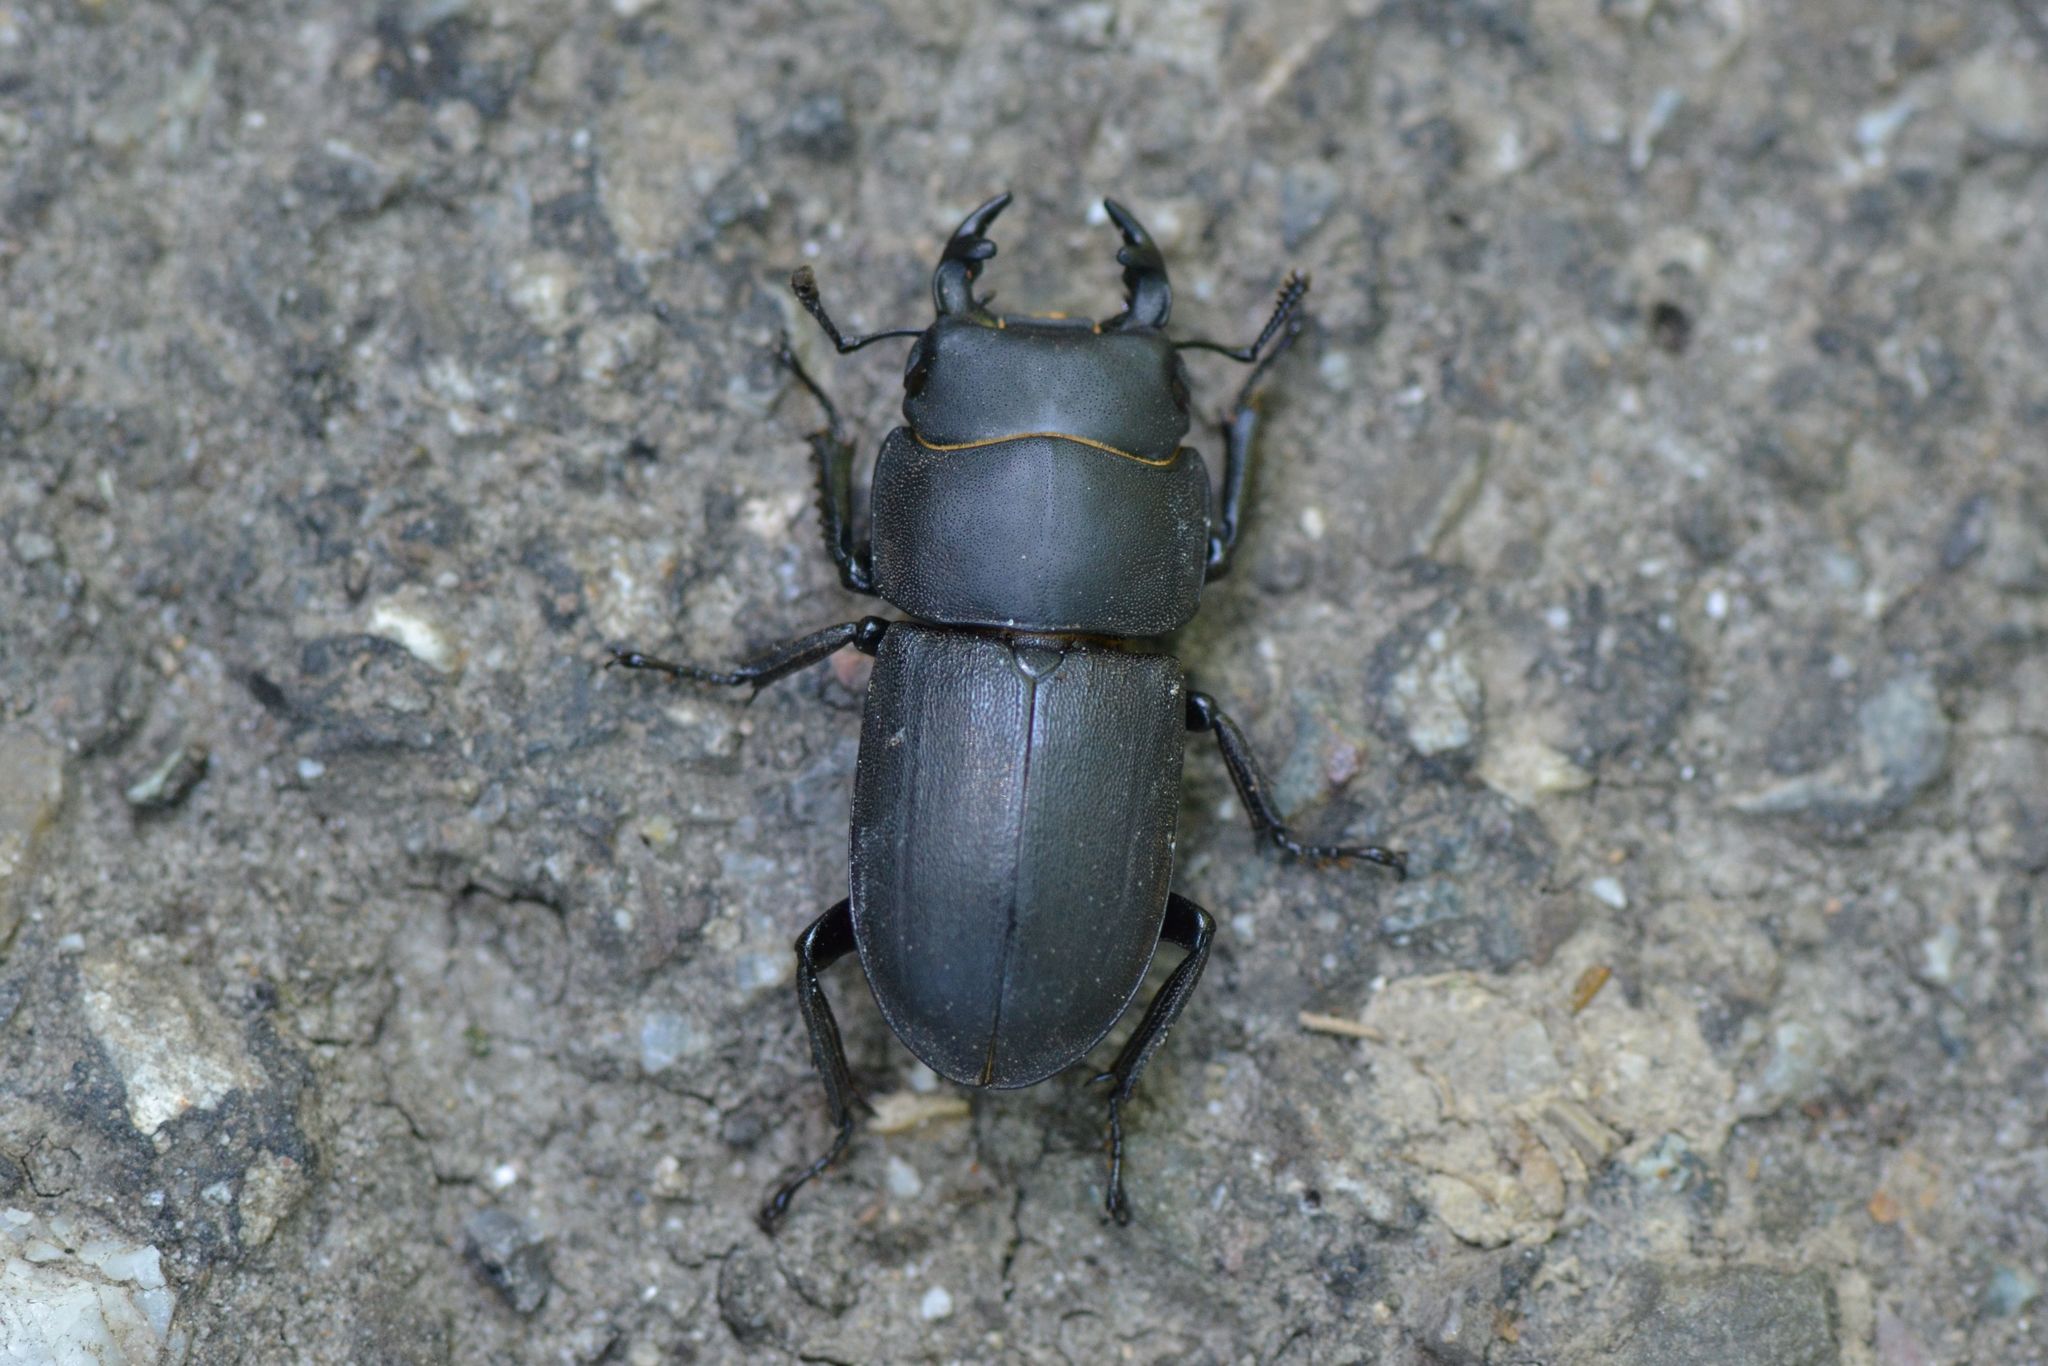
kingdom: Animalia
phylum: Arthropoda
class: Insecta
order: Coleoptera
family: Lucanidae
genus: Dorcus
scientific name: Dorcus parallelipipedus
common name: Lesser stag beetle
